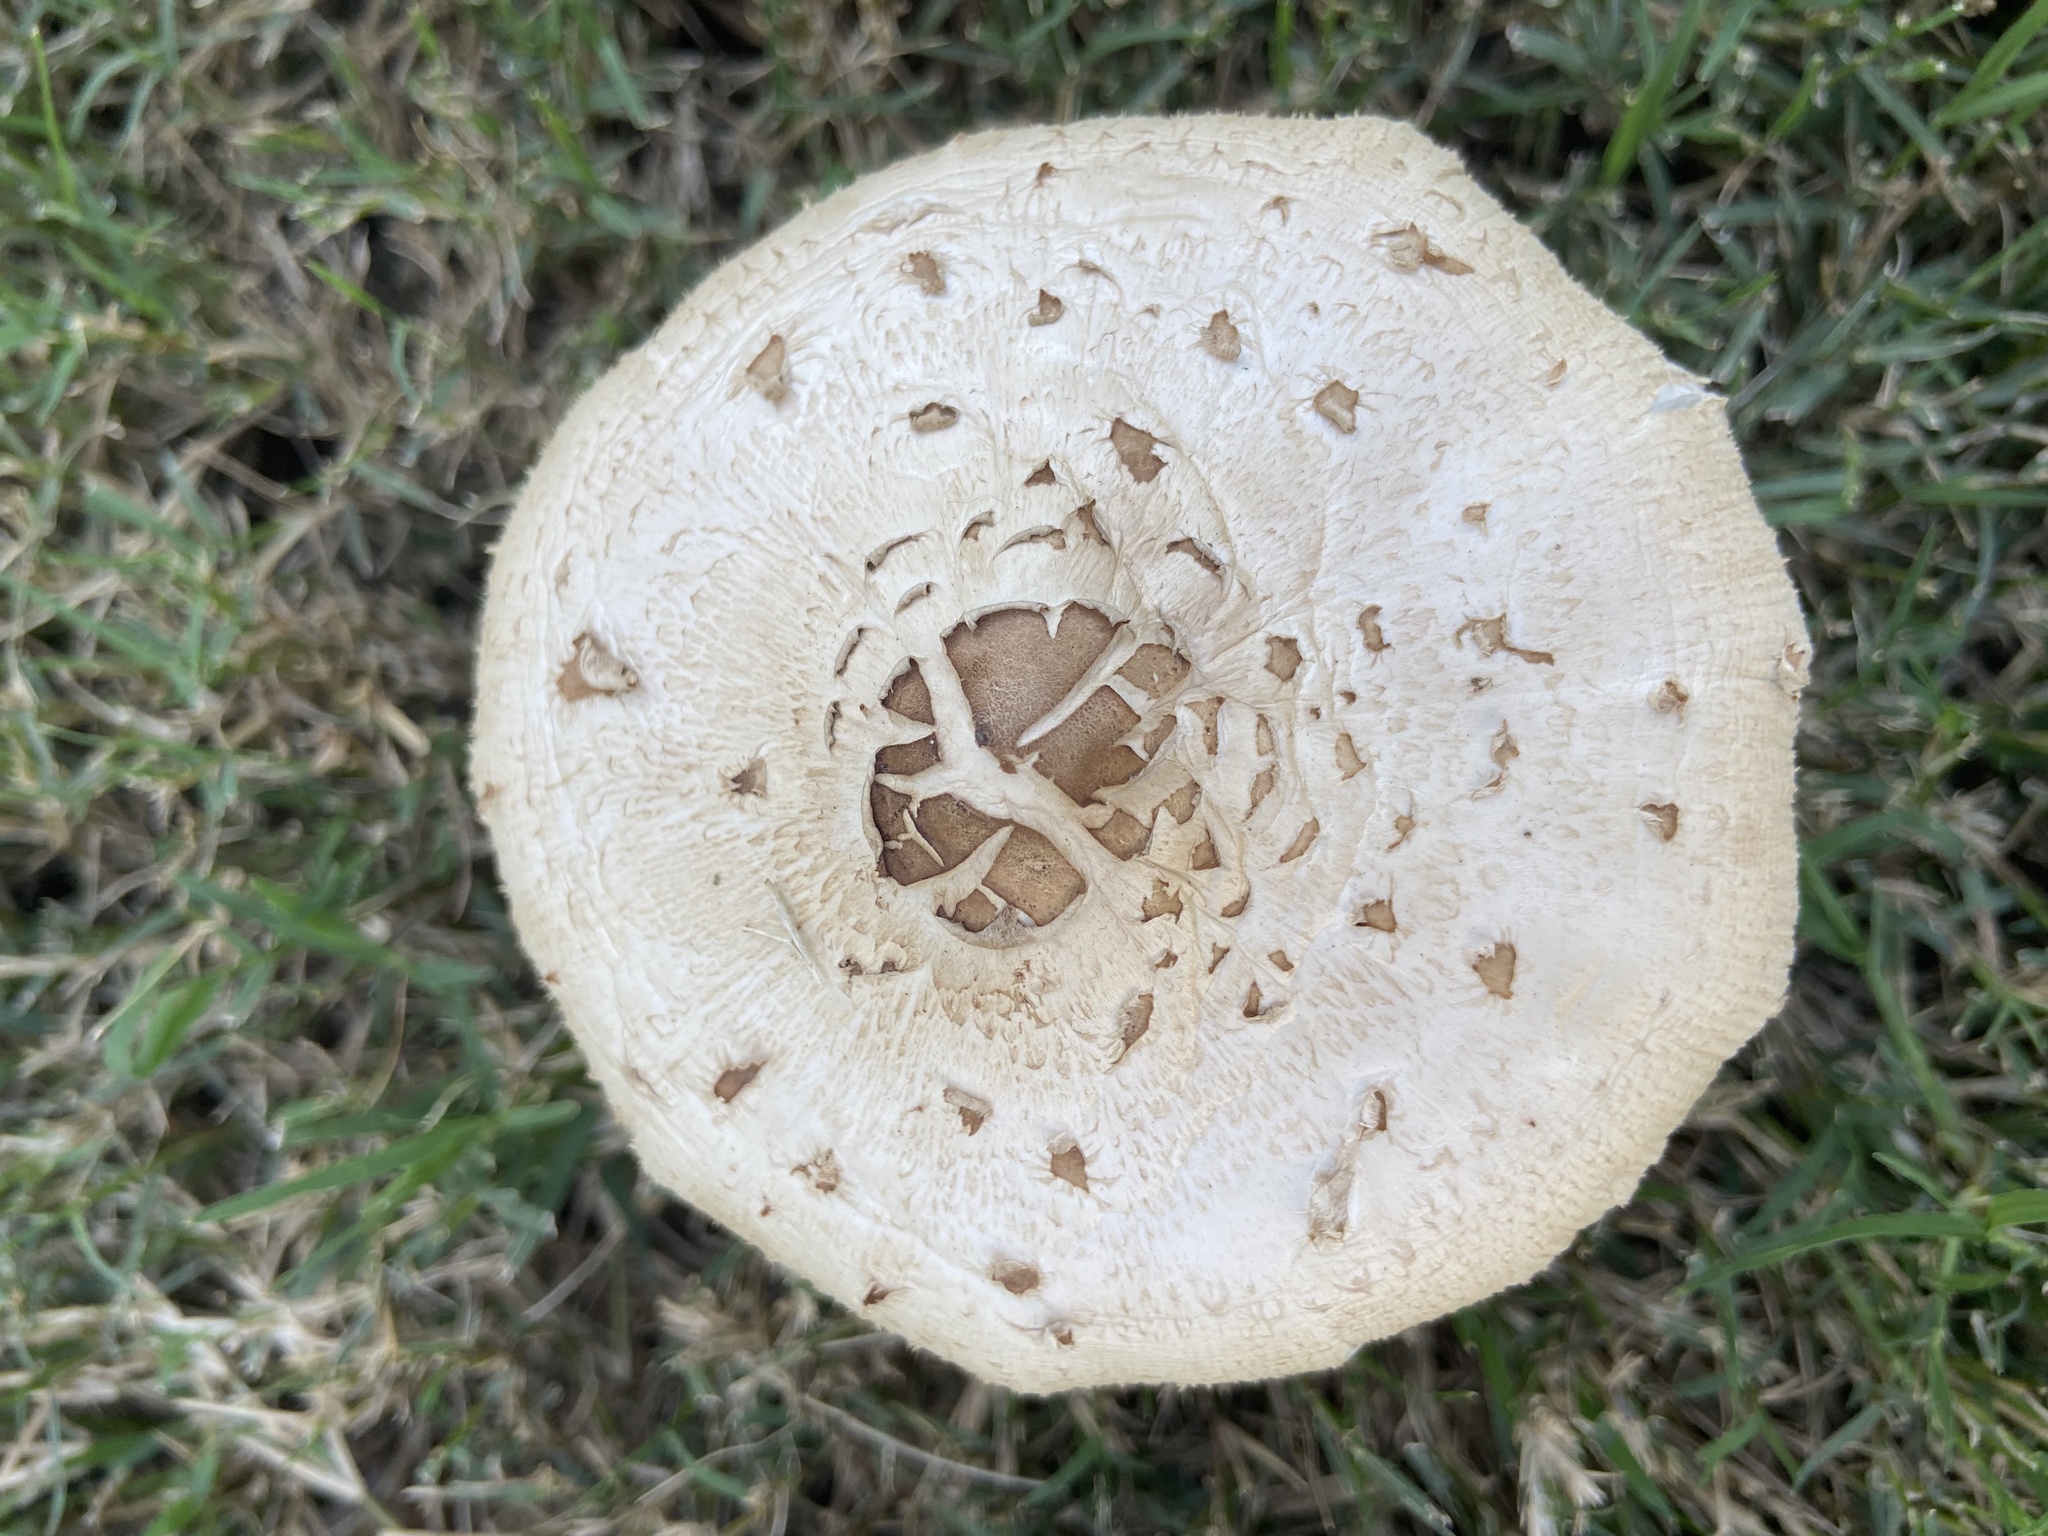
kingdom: Fungi
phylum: Basidiomycota
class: Agaricomycetes
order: Agaricales
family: Agaricaceae
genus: Chlorophyllum
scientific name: Chlorophyllum molybdites
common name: False parasol
